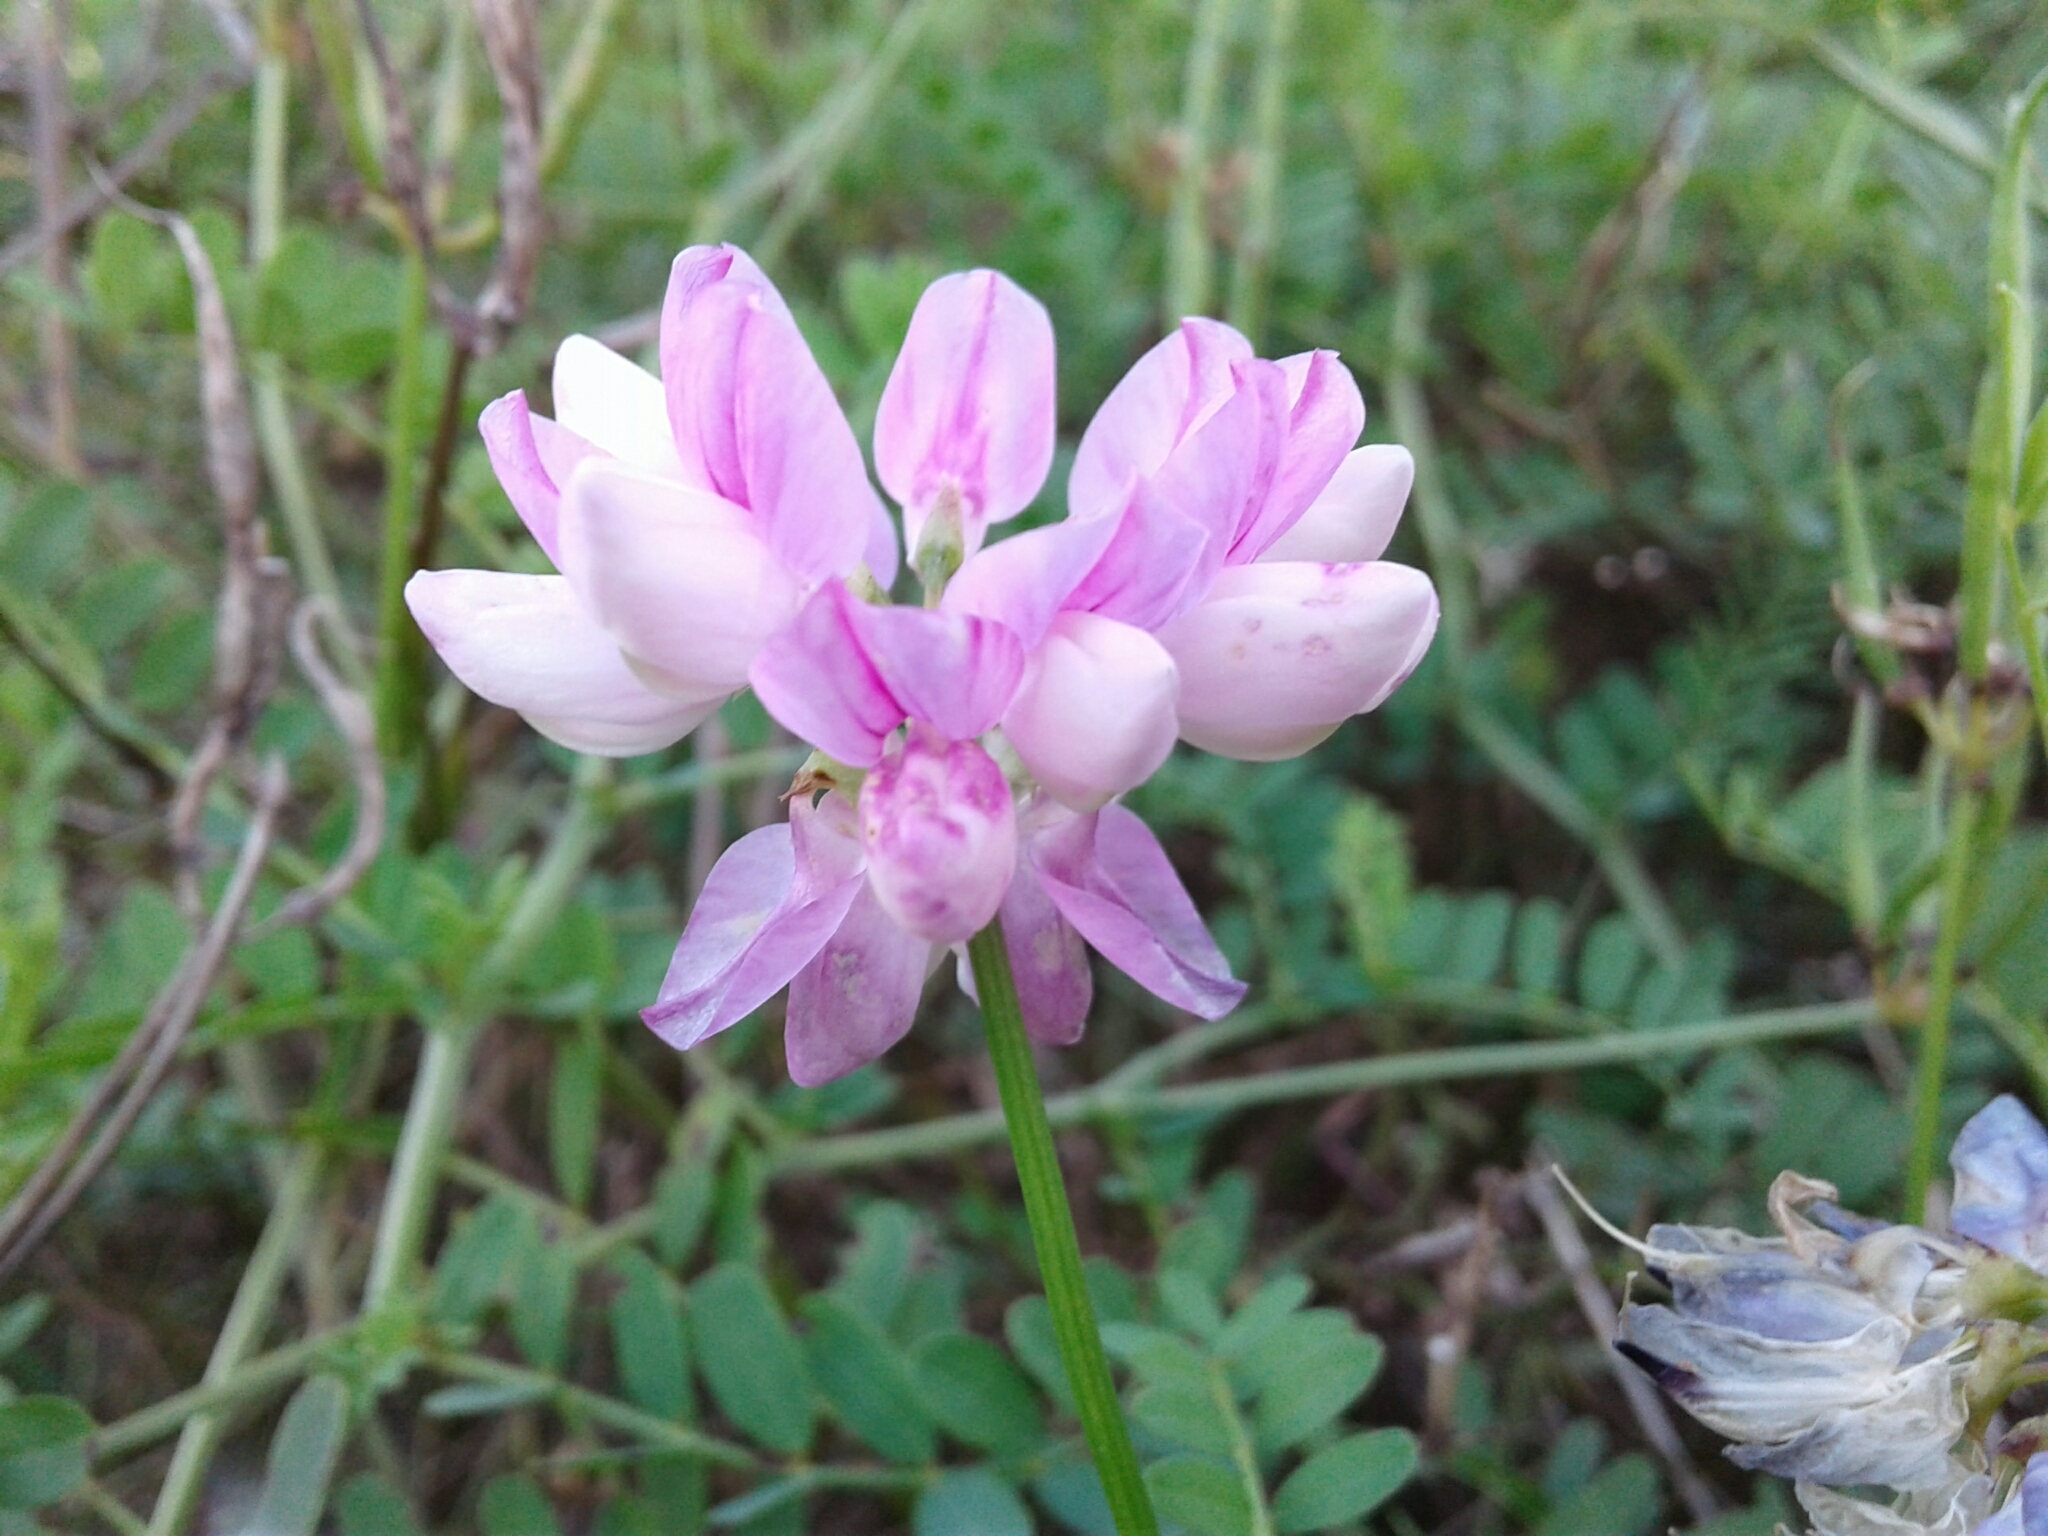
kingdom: Plantae
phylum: Tracheophyta
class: Magnoliopsida
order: Fabales
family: Fabaceae
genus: Coronilla
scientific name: Coronilla varia
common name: Crownvetch
